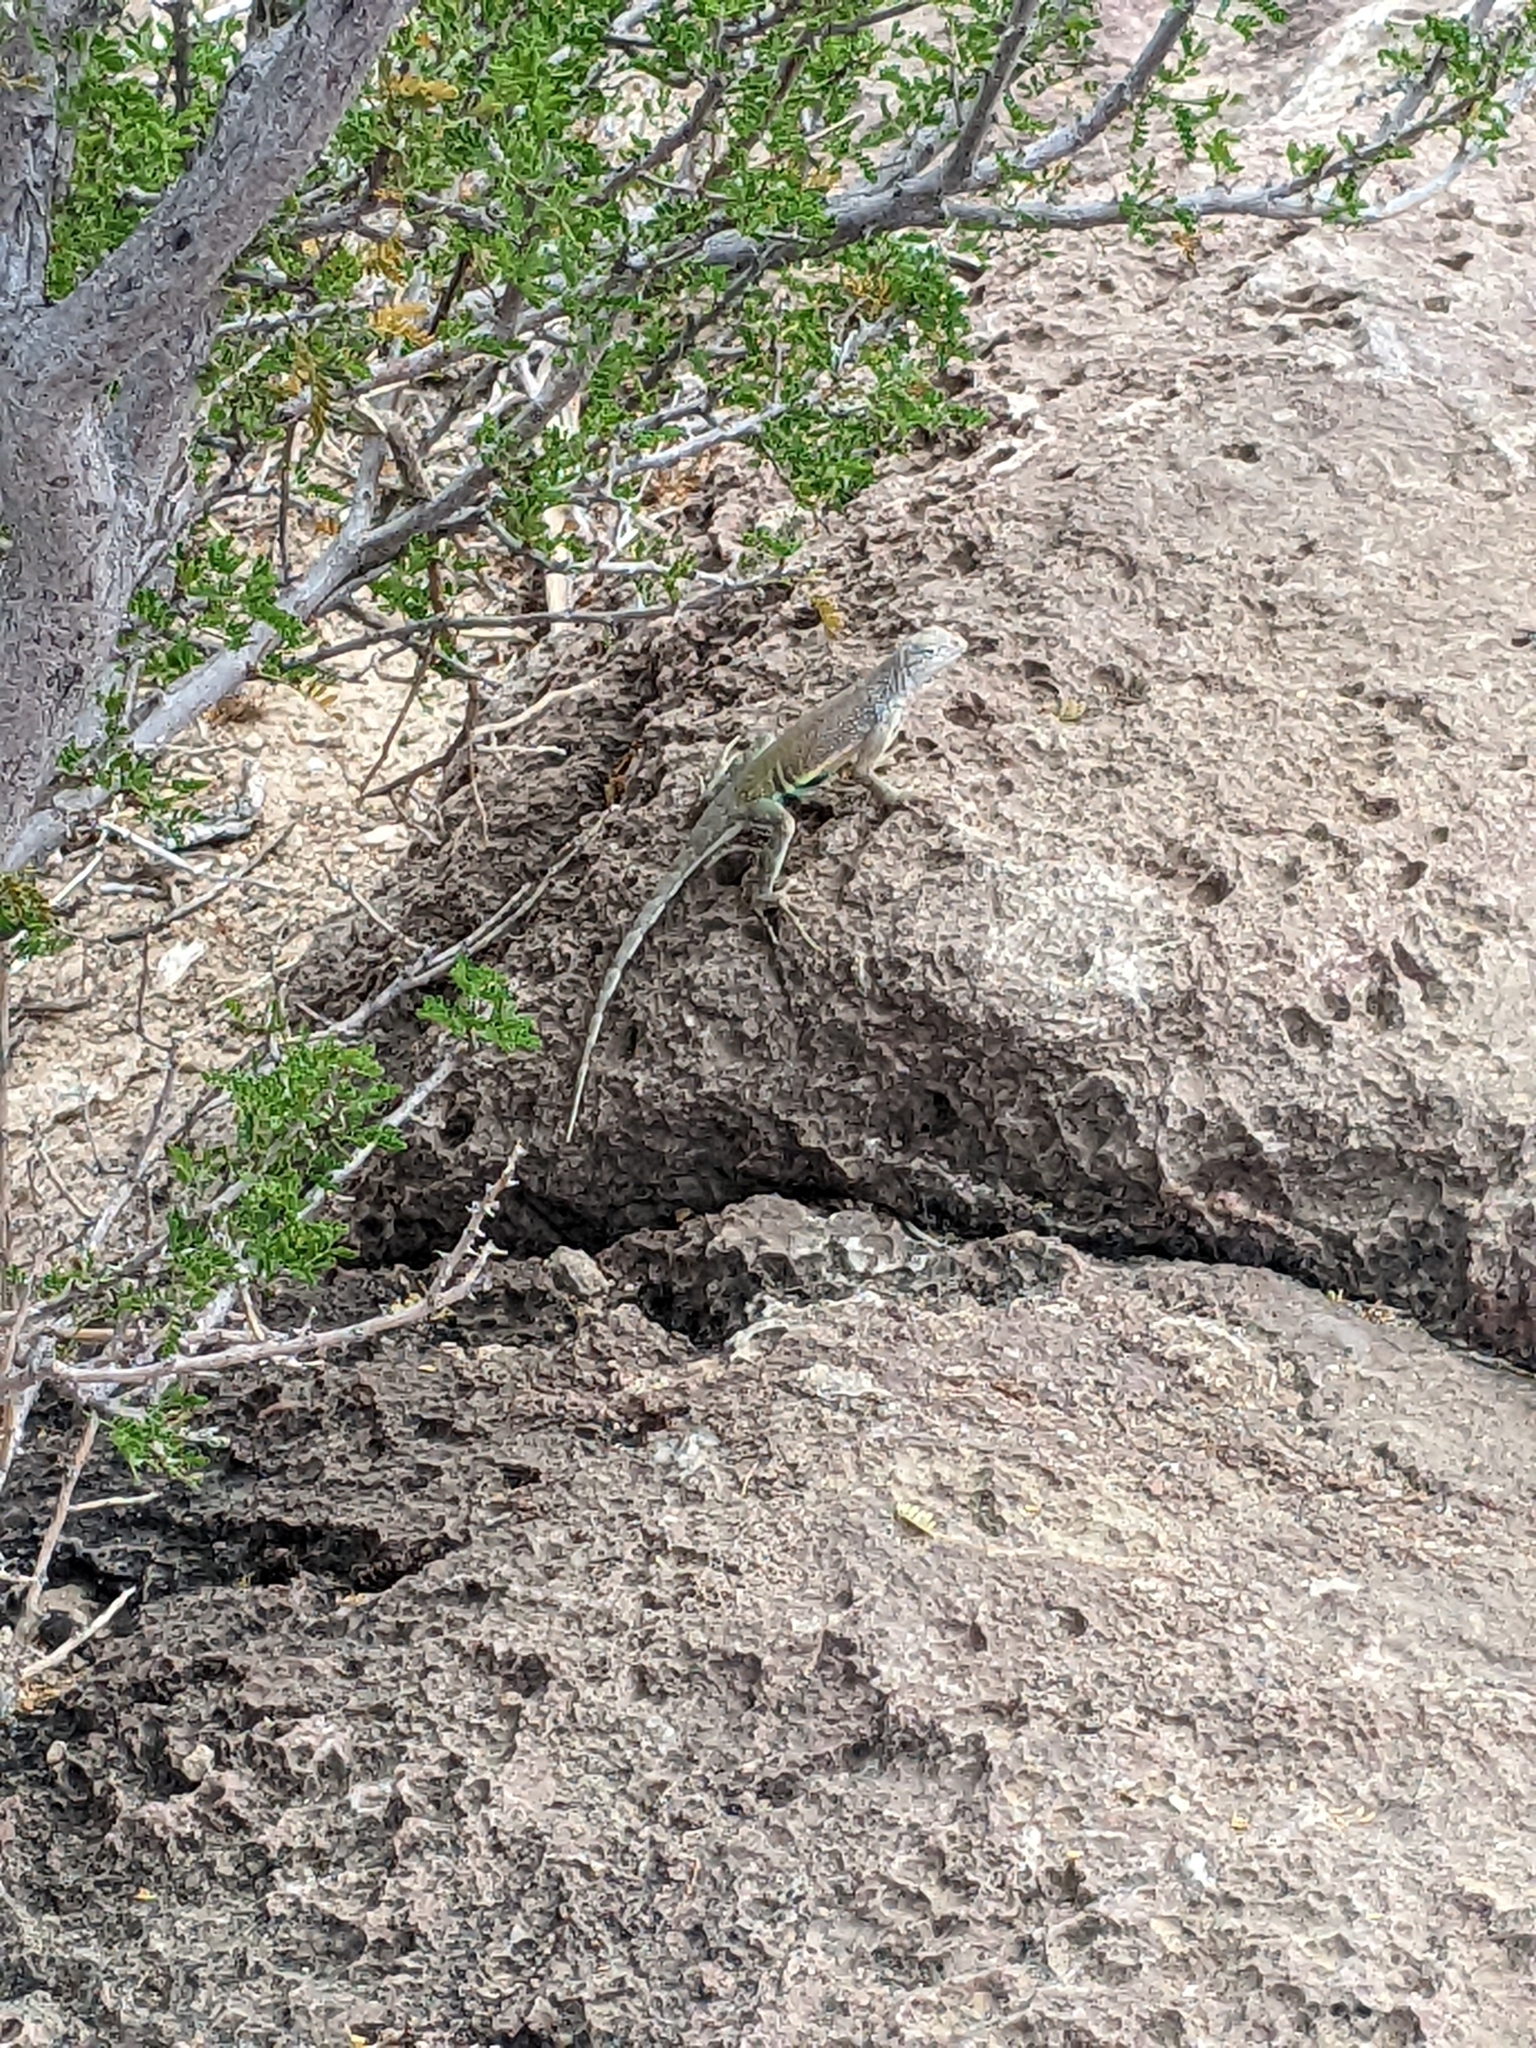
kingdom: Animalia
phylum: Chordata
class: Squamata
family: Phrynosomatidae
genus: Cophosaurus
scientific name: Cophosaurus texanus
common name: Greater earless lizard
